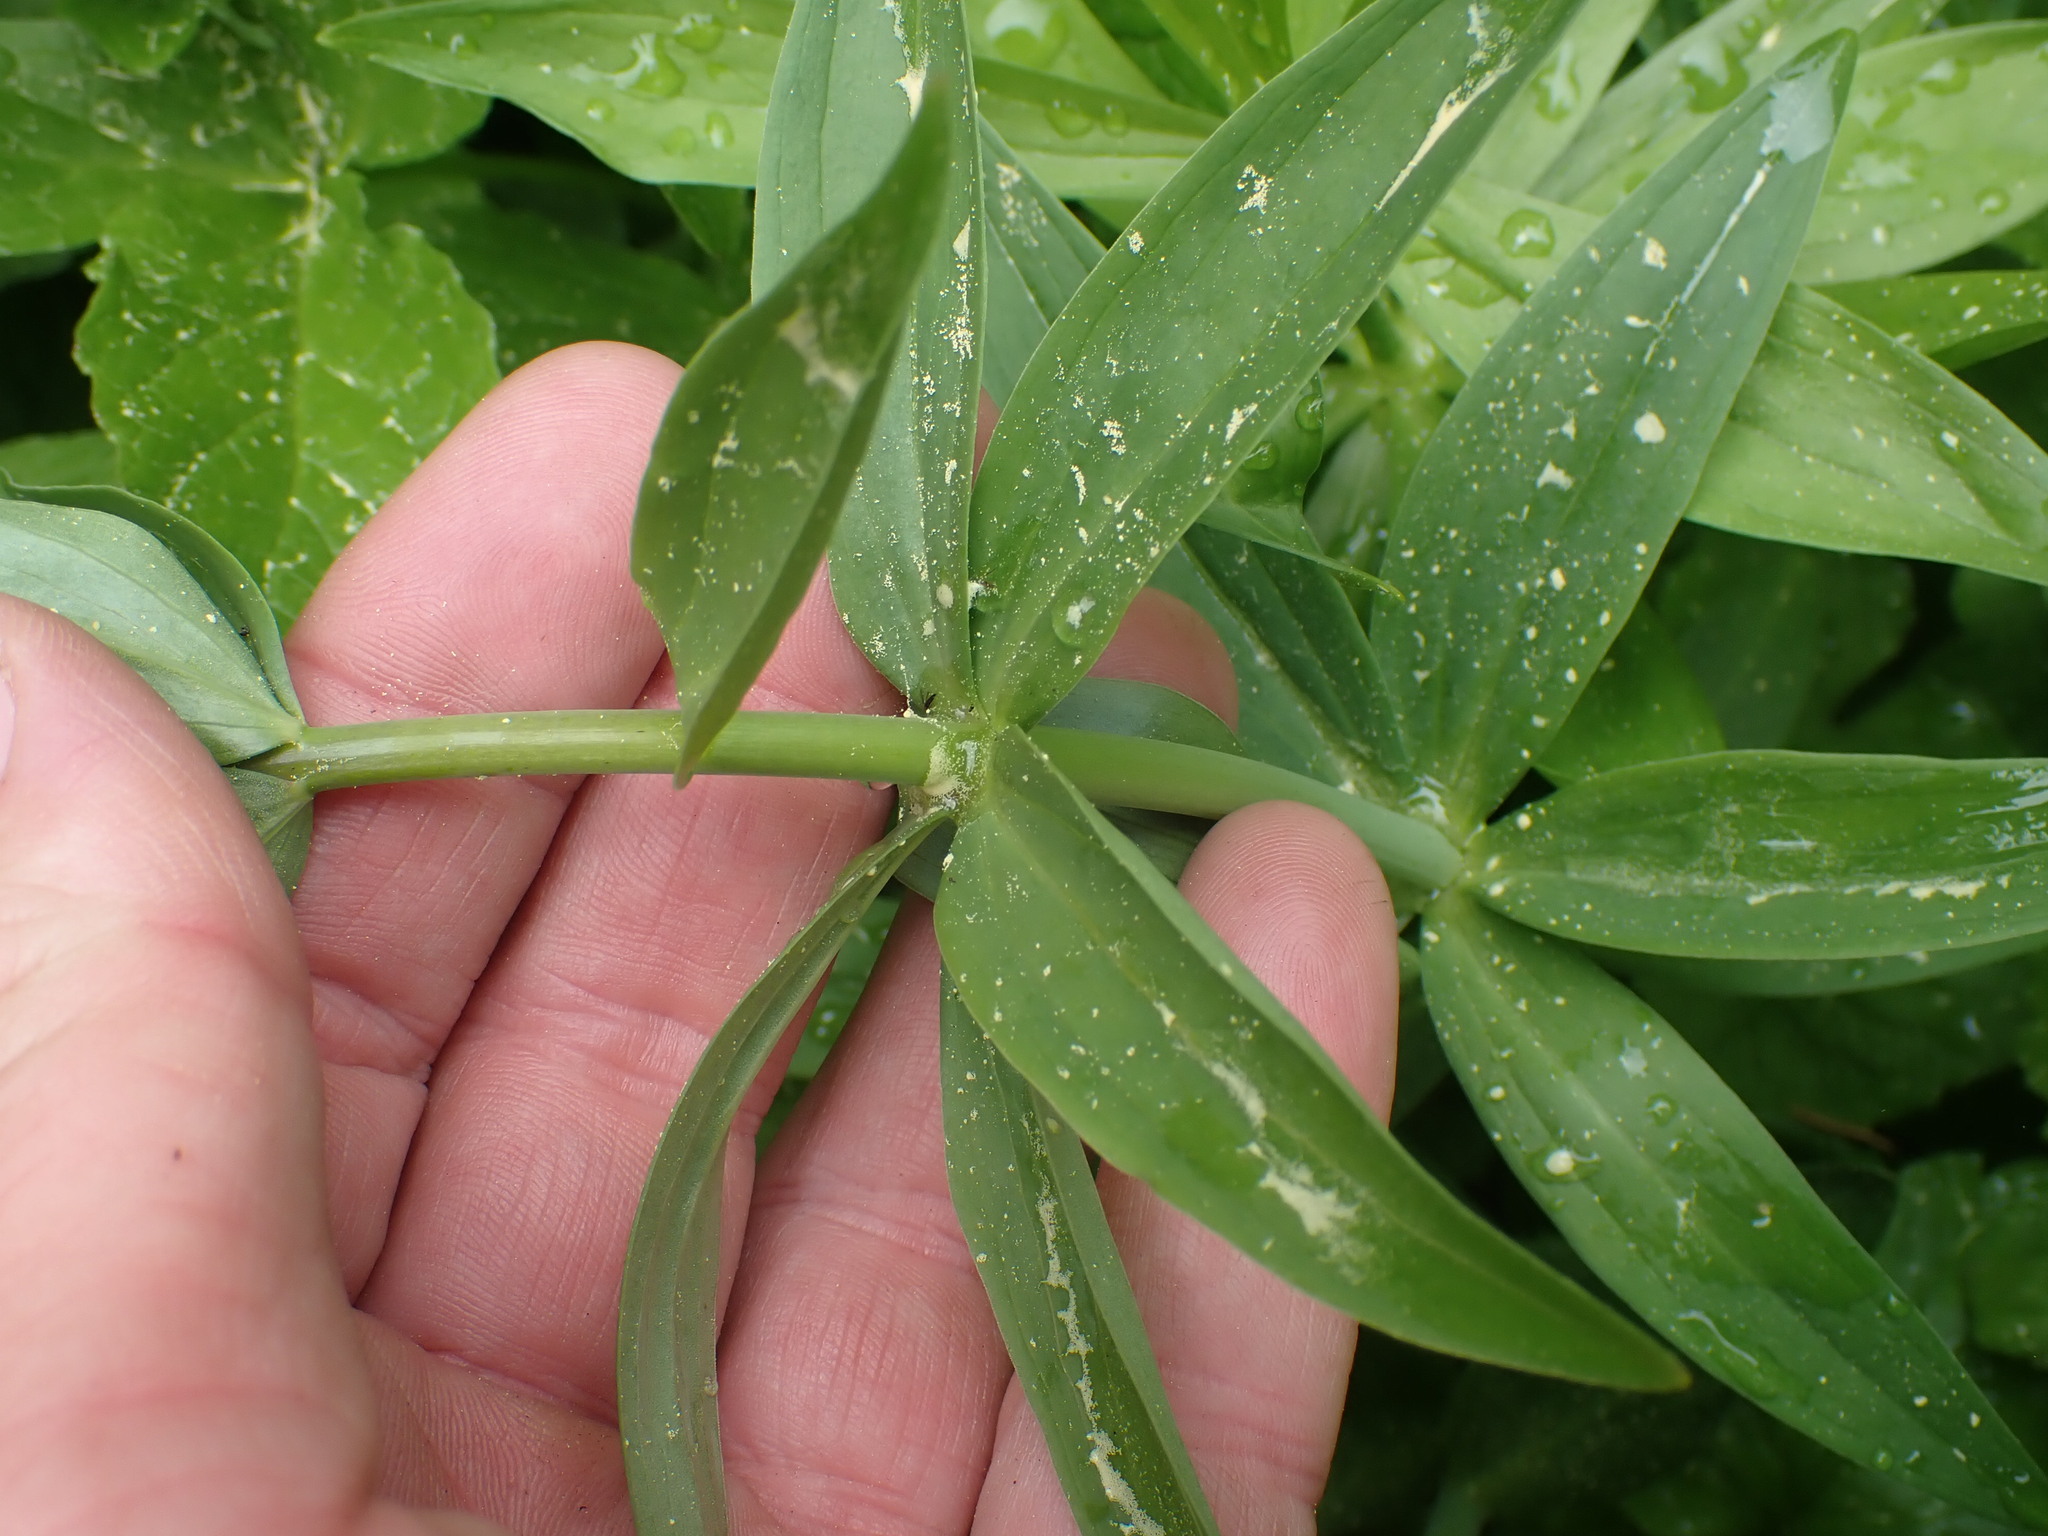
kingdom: Plantae
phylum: Tracheophyta
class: Liliopsida
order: Liliales
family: Liliaceae
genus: Lilium
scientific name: Lilium columbianum
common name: Columbia lily
